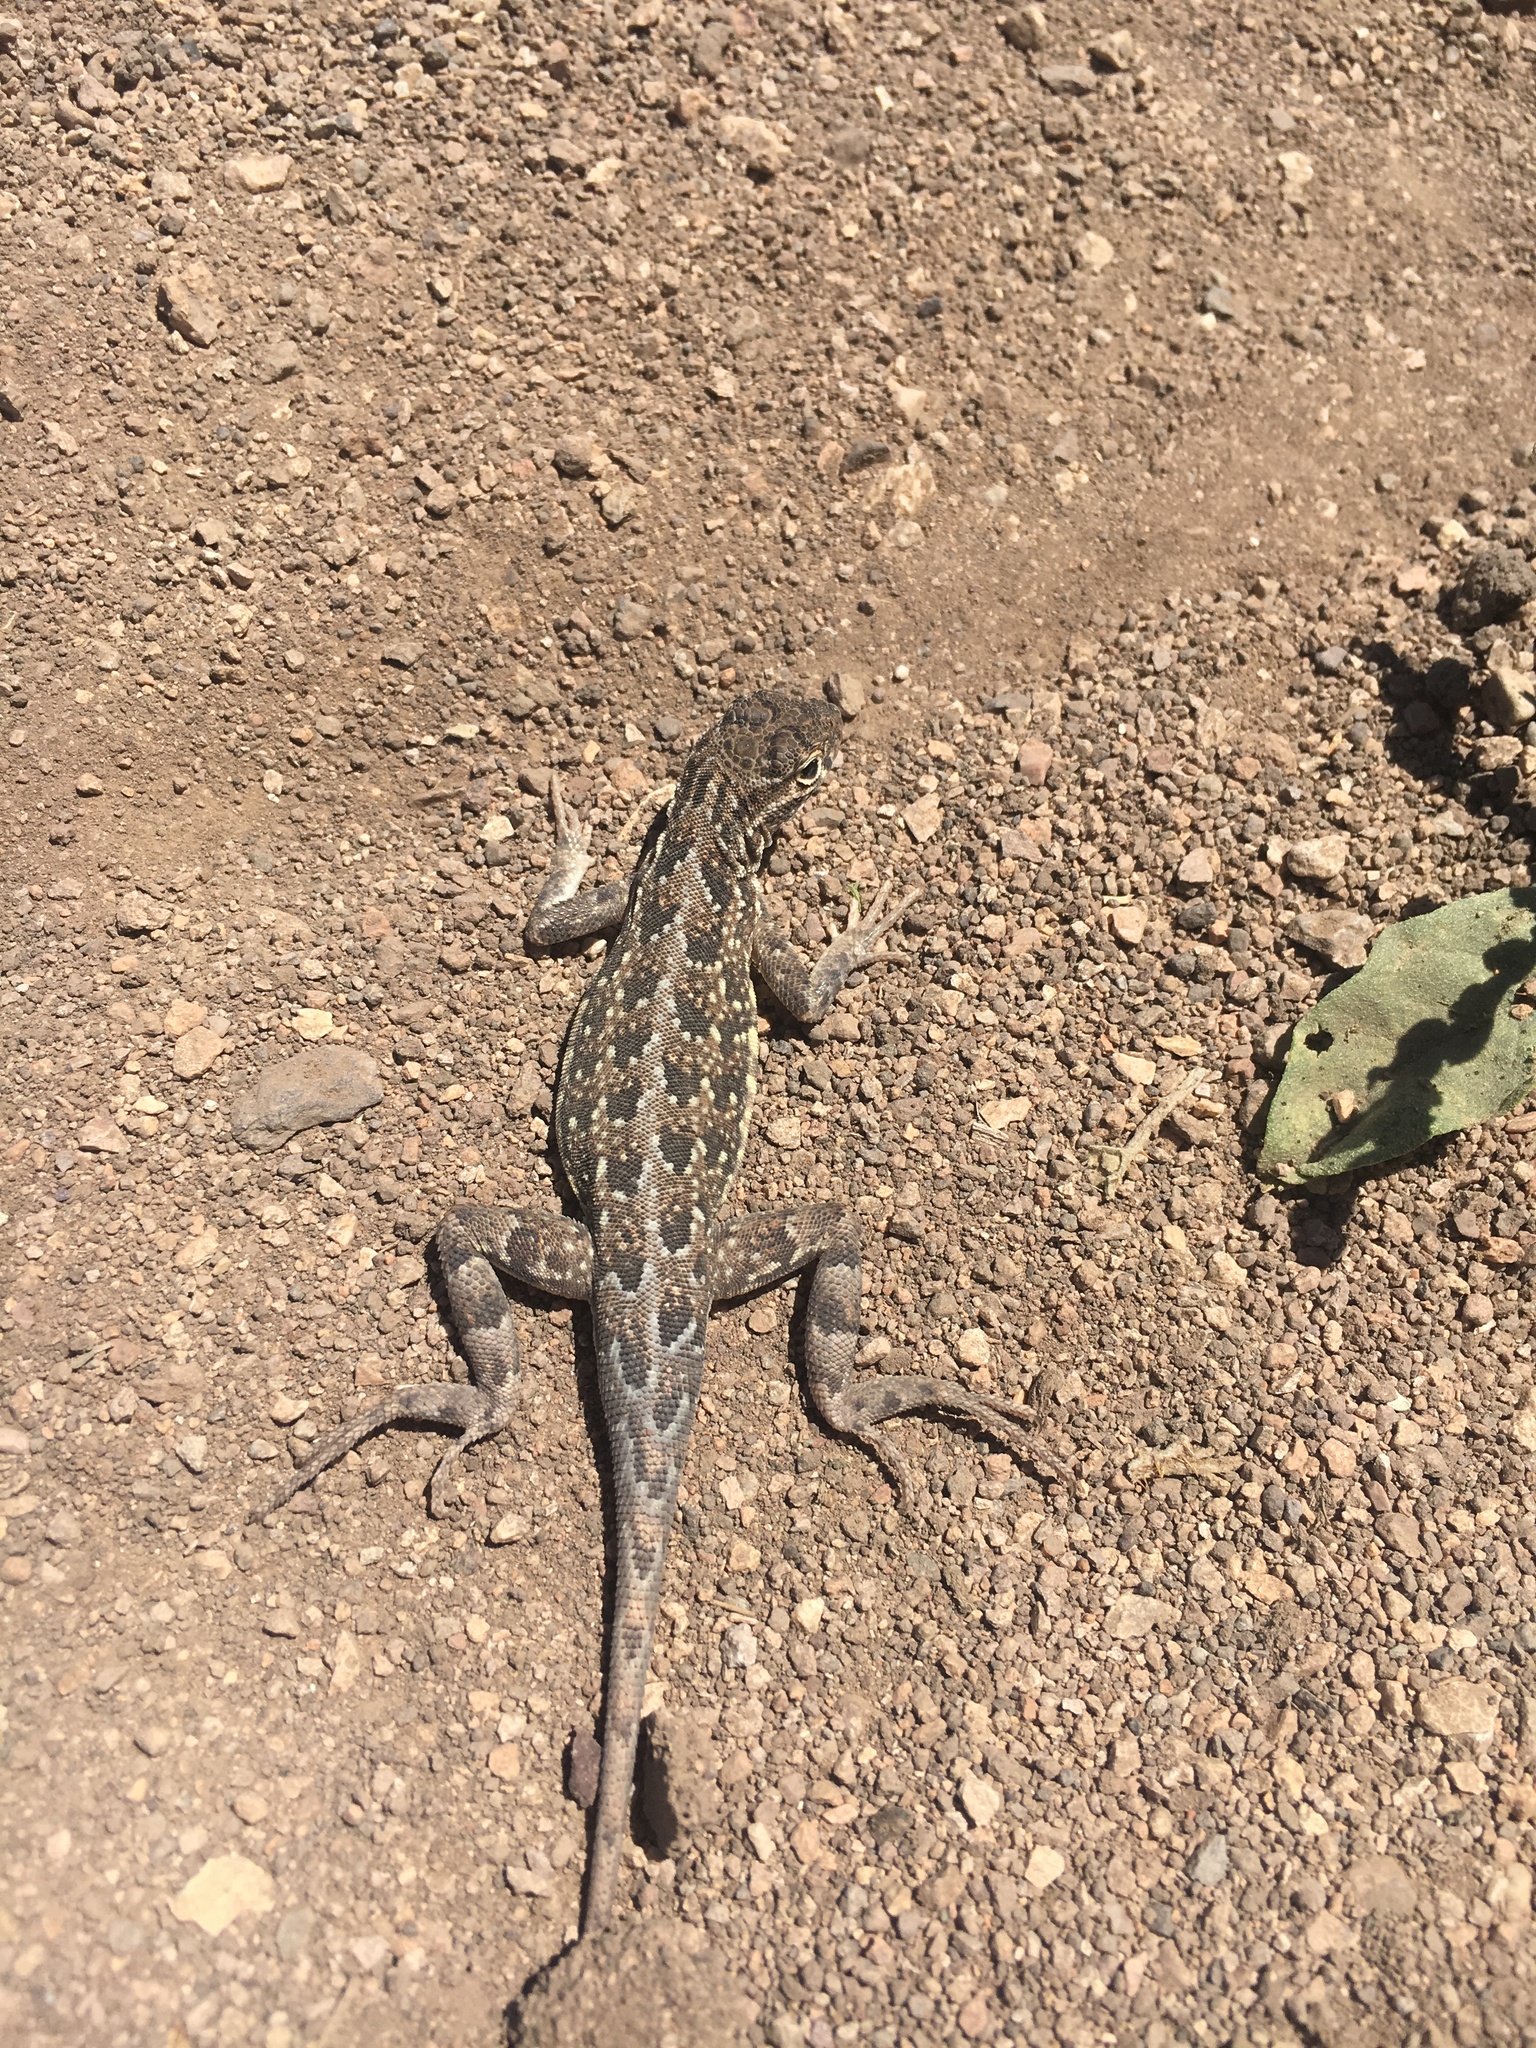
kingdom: Animalia
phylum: Chordata
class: Squamata
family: Phrynosomatidae
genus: Holbrookia
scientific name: Holbrookia maculata
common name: Lesser earless lizard
